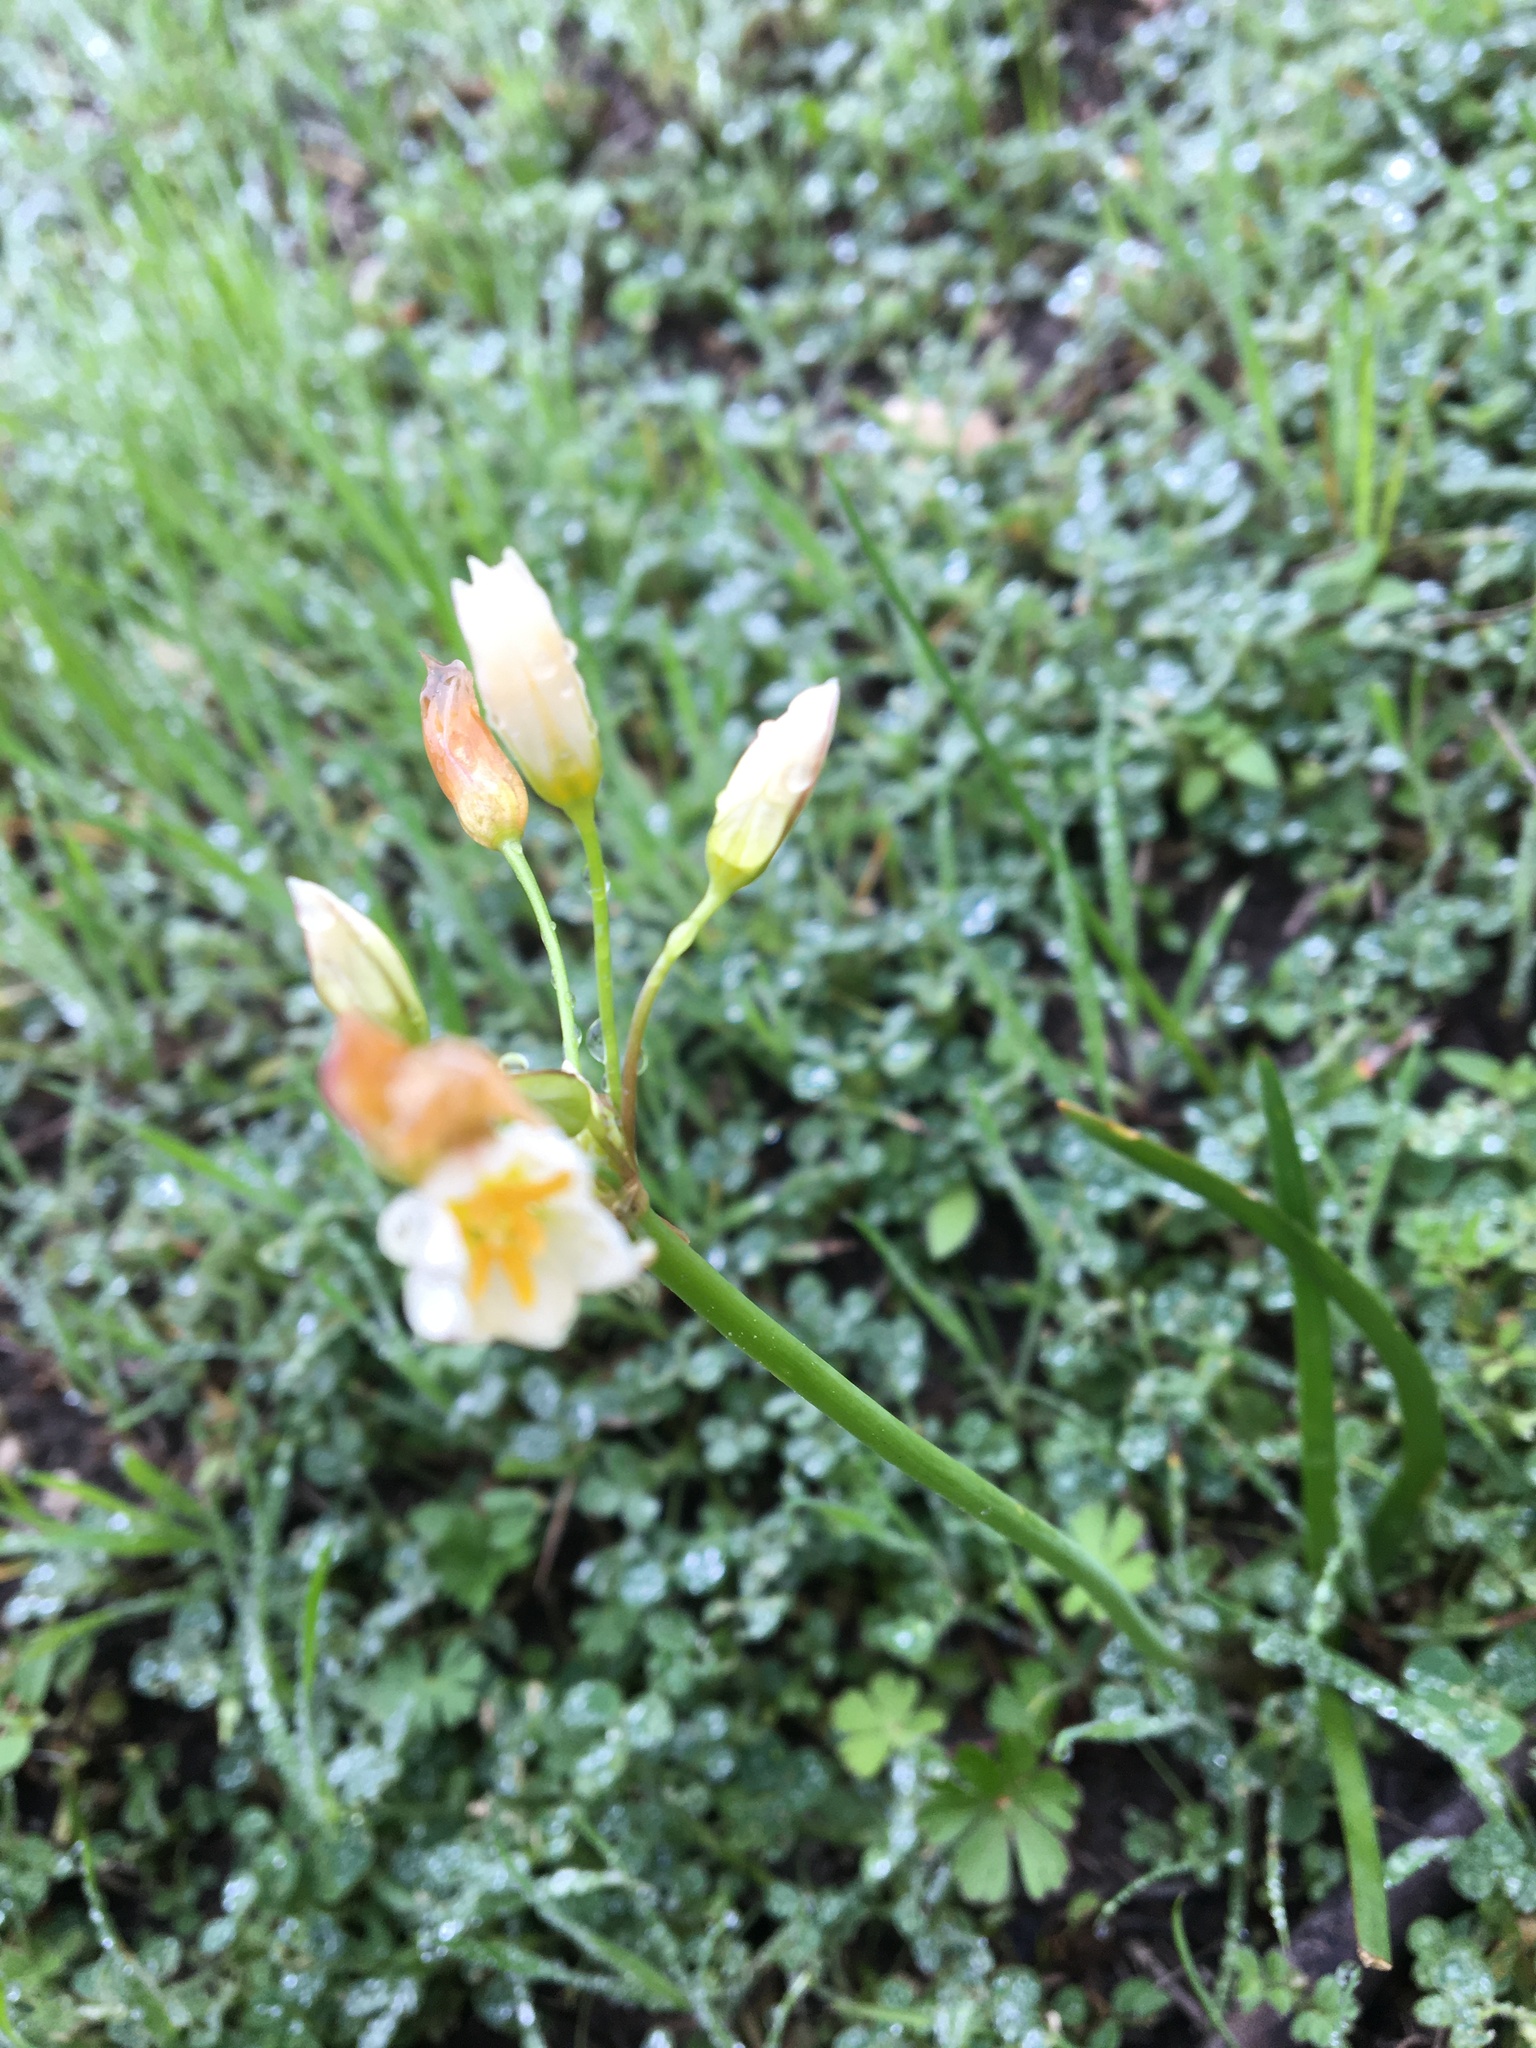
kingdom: Plantae
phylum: Tracheophyta
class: Liliopsida
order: Asparagales
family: Amaryllidaceae
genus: Nothoscordum
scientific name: Nothoscordum bivalve
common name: Crow-poison
